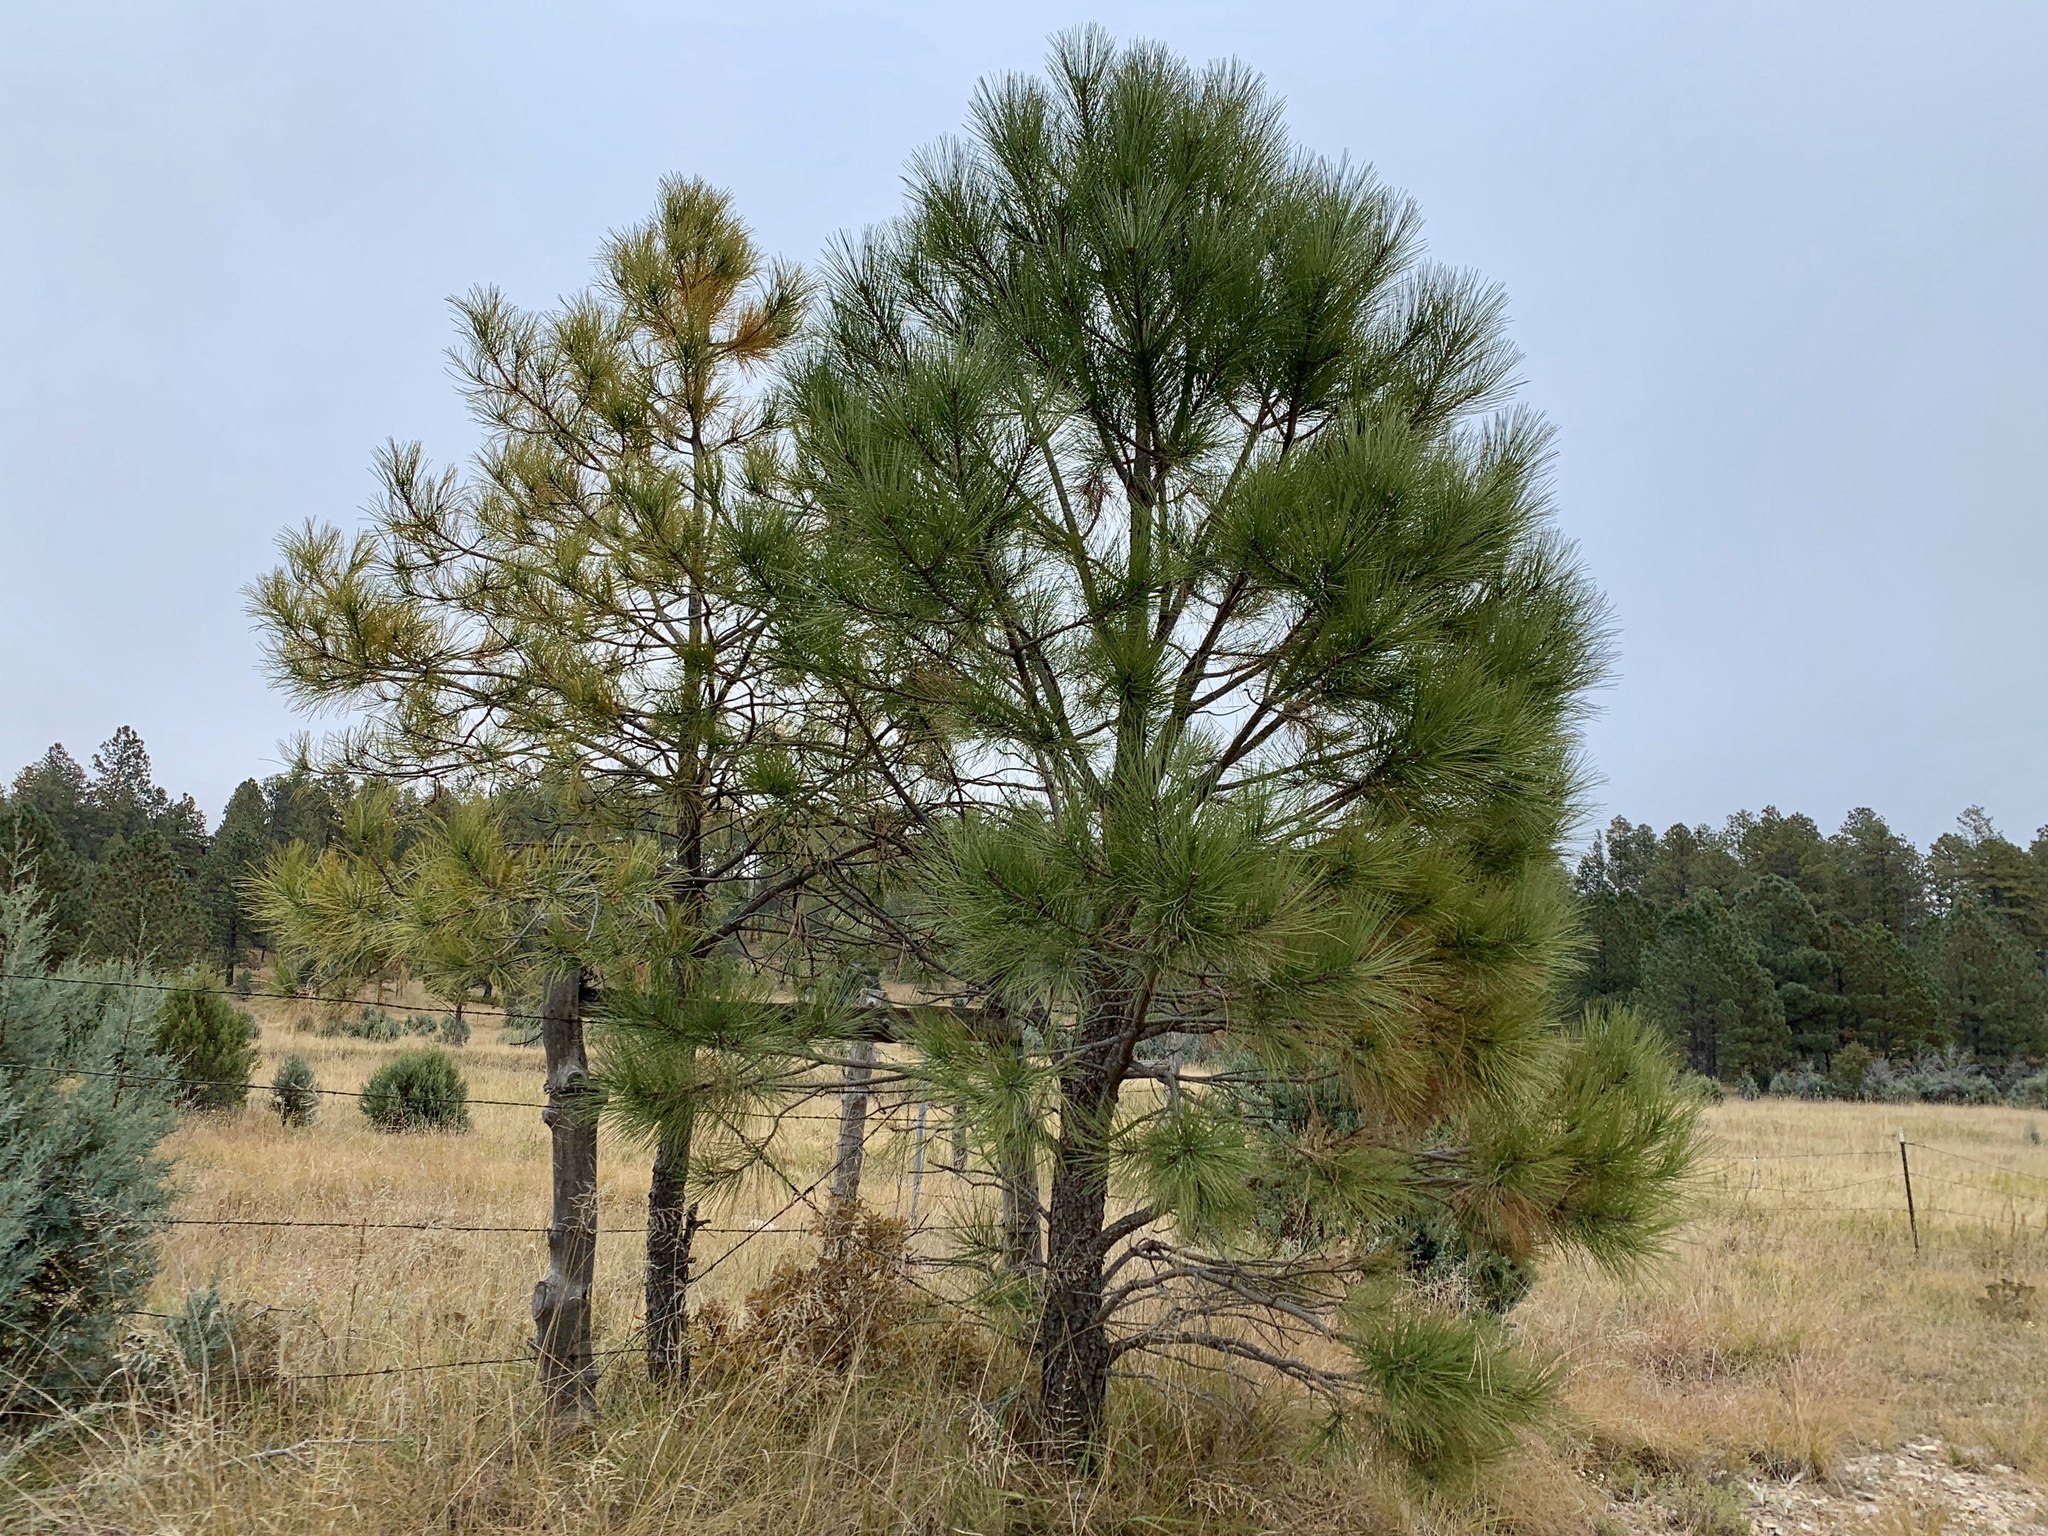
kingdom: Plantae
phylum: Tracheophyta
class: Pinopsida
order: Pinales
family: Pinaceae
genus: Pinus
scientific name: Pinus ponderosa
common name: Western yellow-pine
